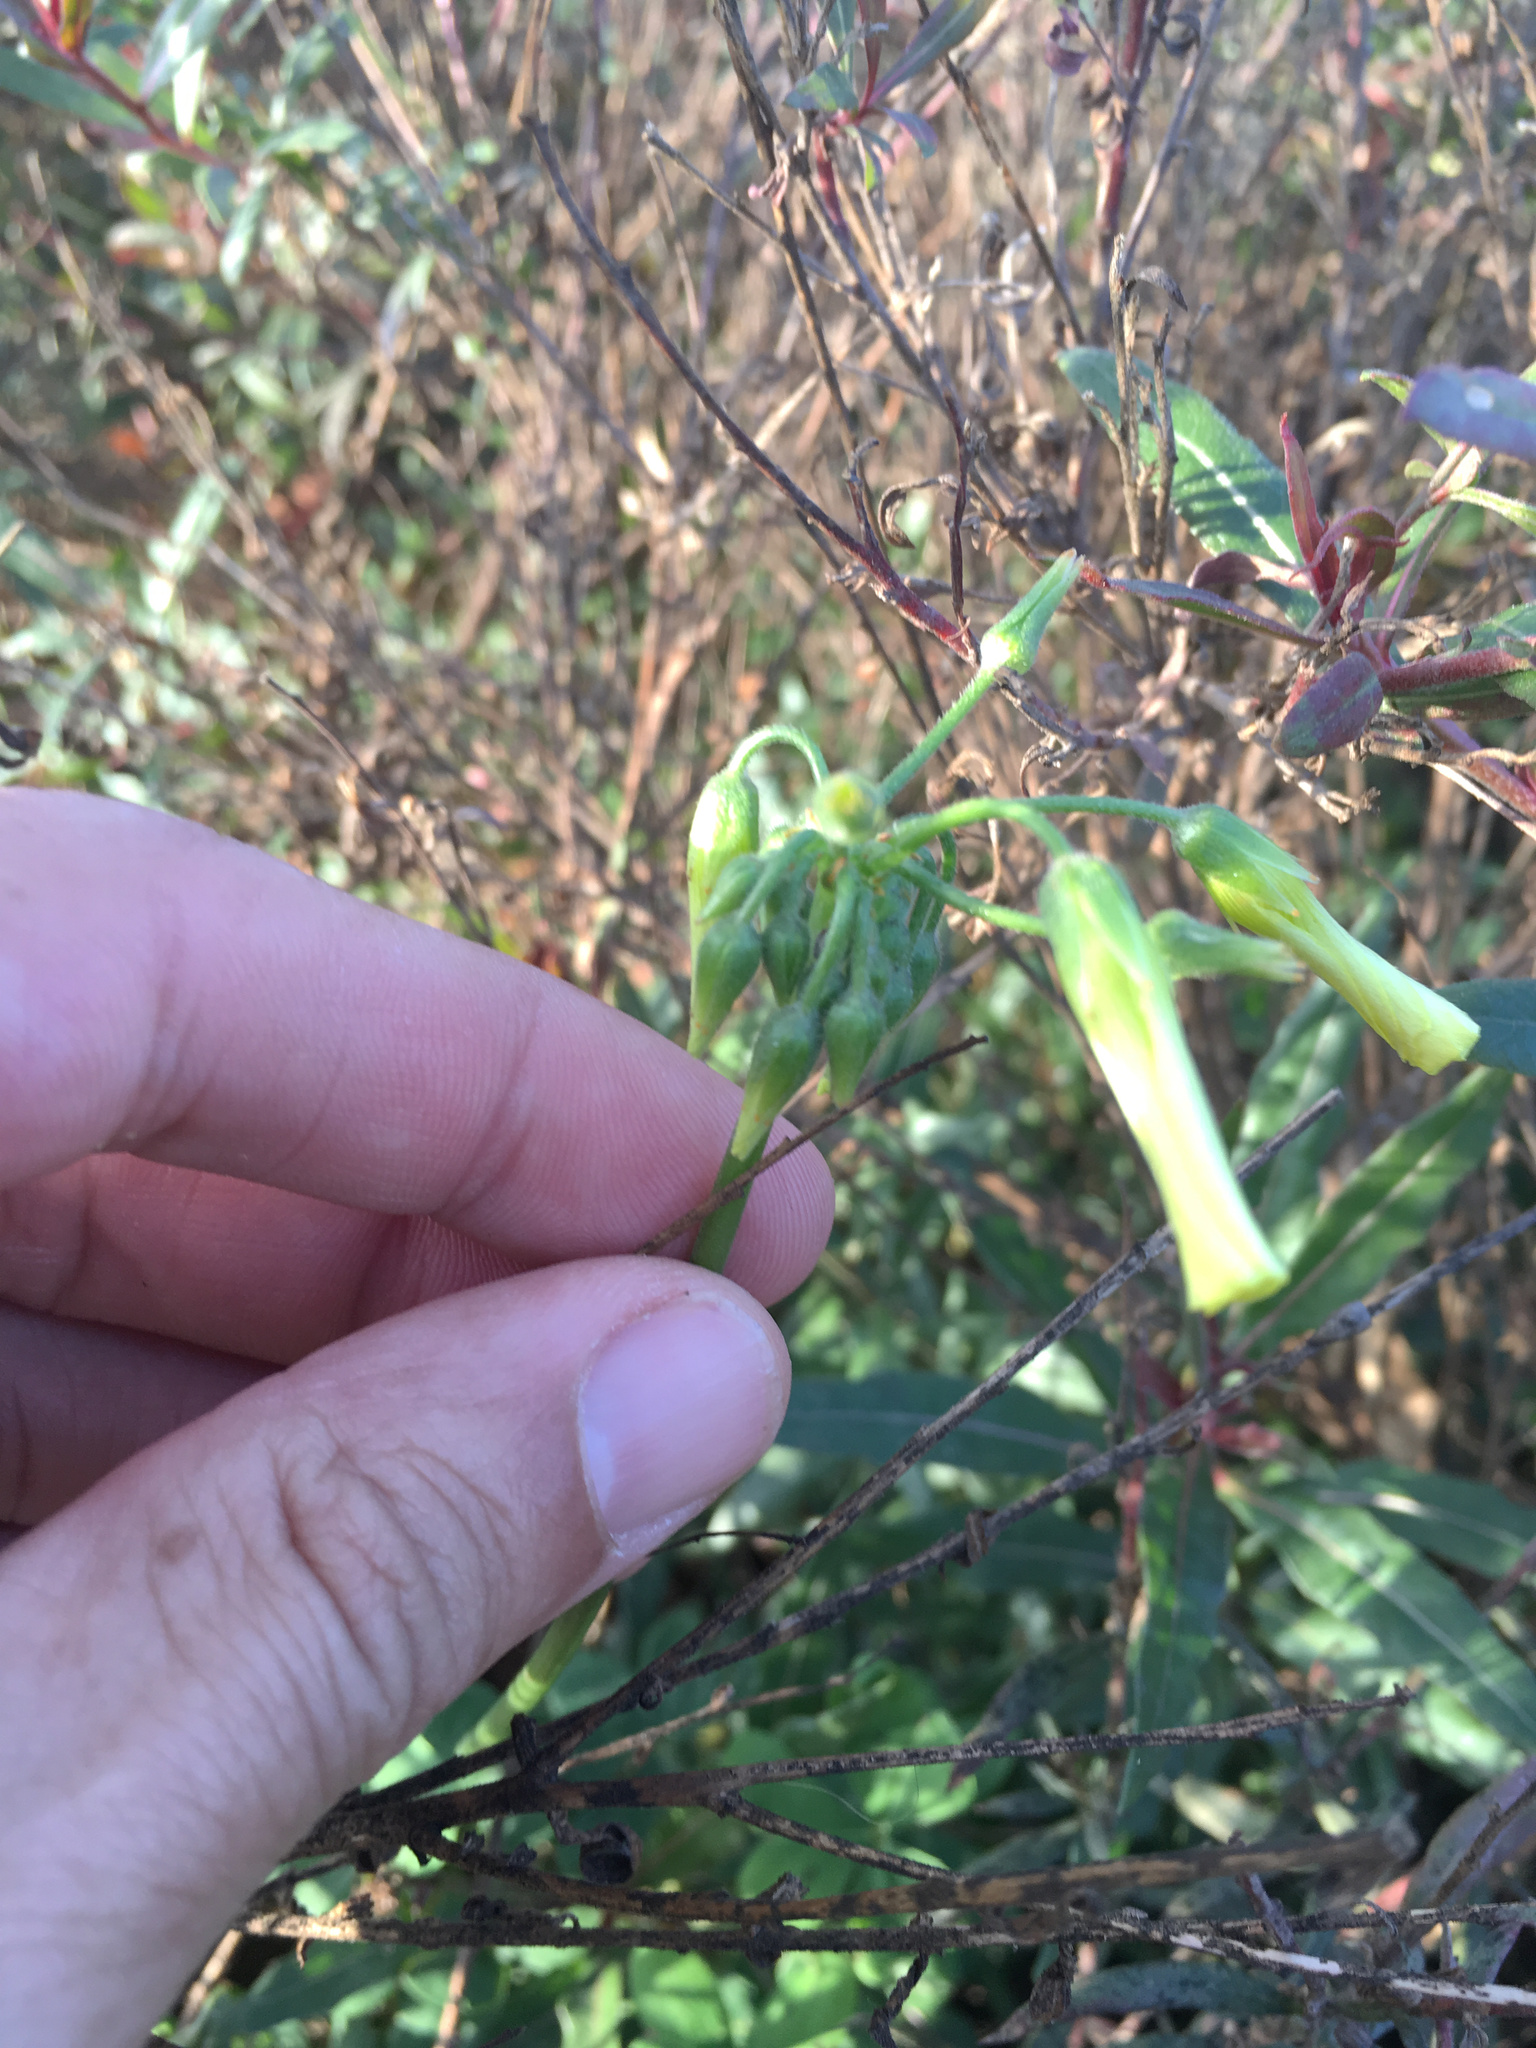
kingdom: Plantae
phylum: Tracheophyta
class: Magnoliopsida
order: Oxalidales
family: Oxalidaceae
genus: Oxalis
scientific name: Oxalis pes-caprae
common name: Bermuda-buttercup
